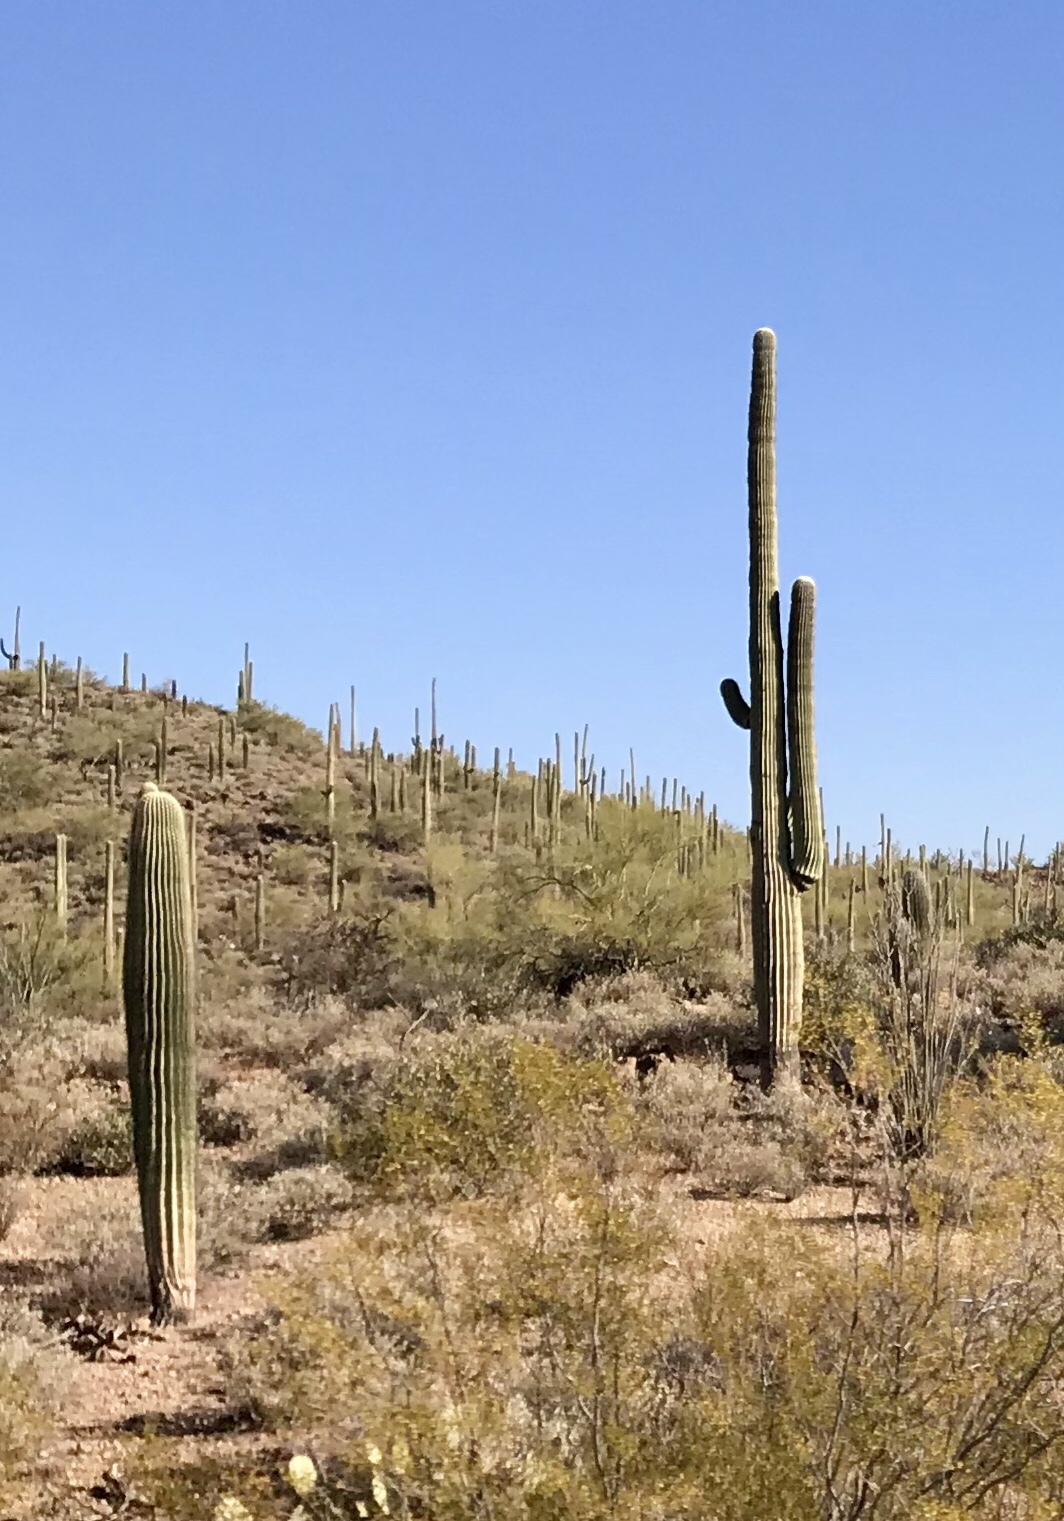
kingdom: Plantae
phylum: Tracheophyta
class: Magnoliopsida
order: Caryophyllales
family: Cactaceae
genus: Carnegiea
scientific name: Carnegiea gigantea
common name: Saguaro
